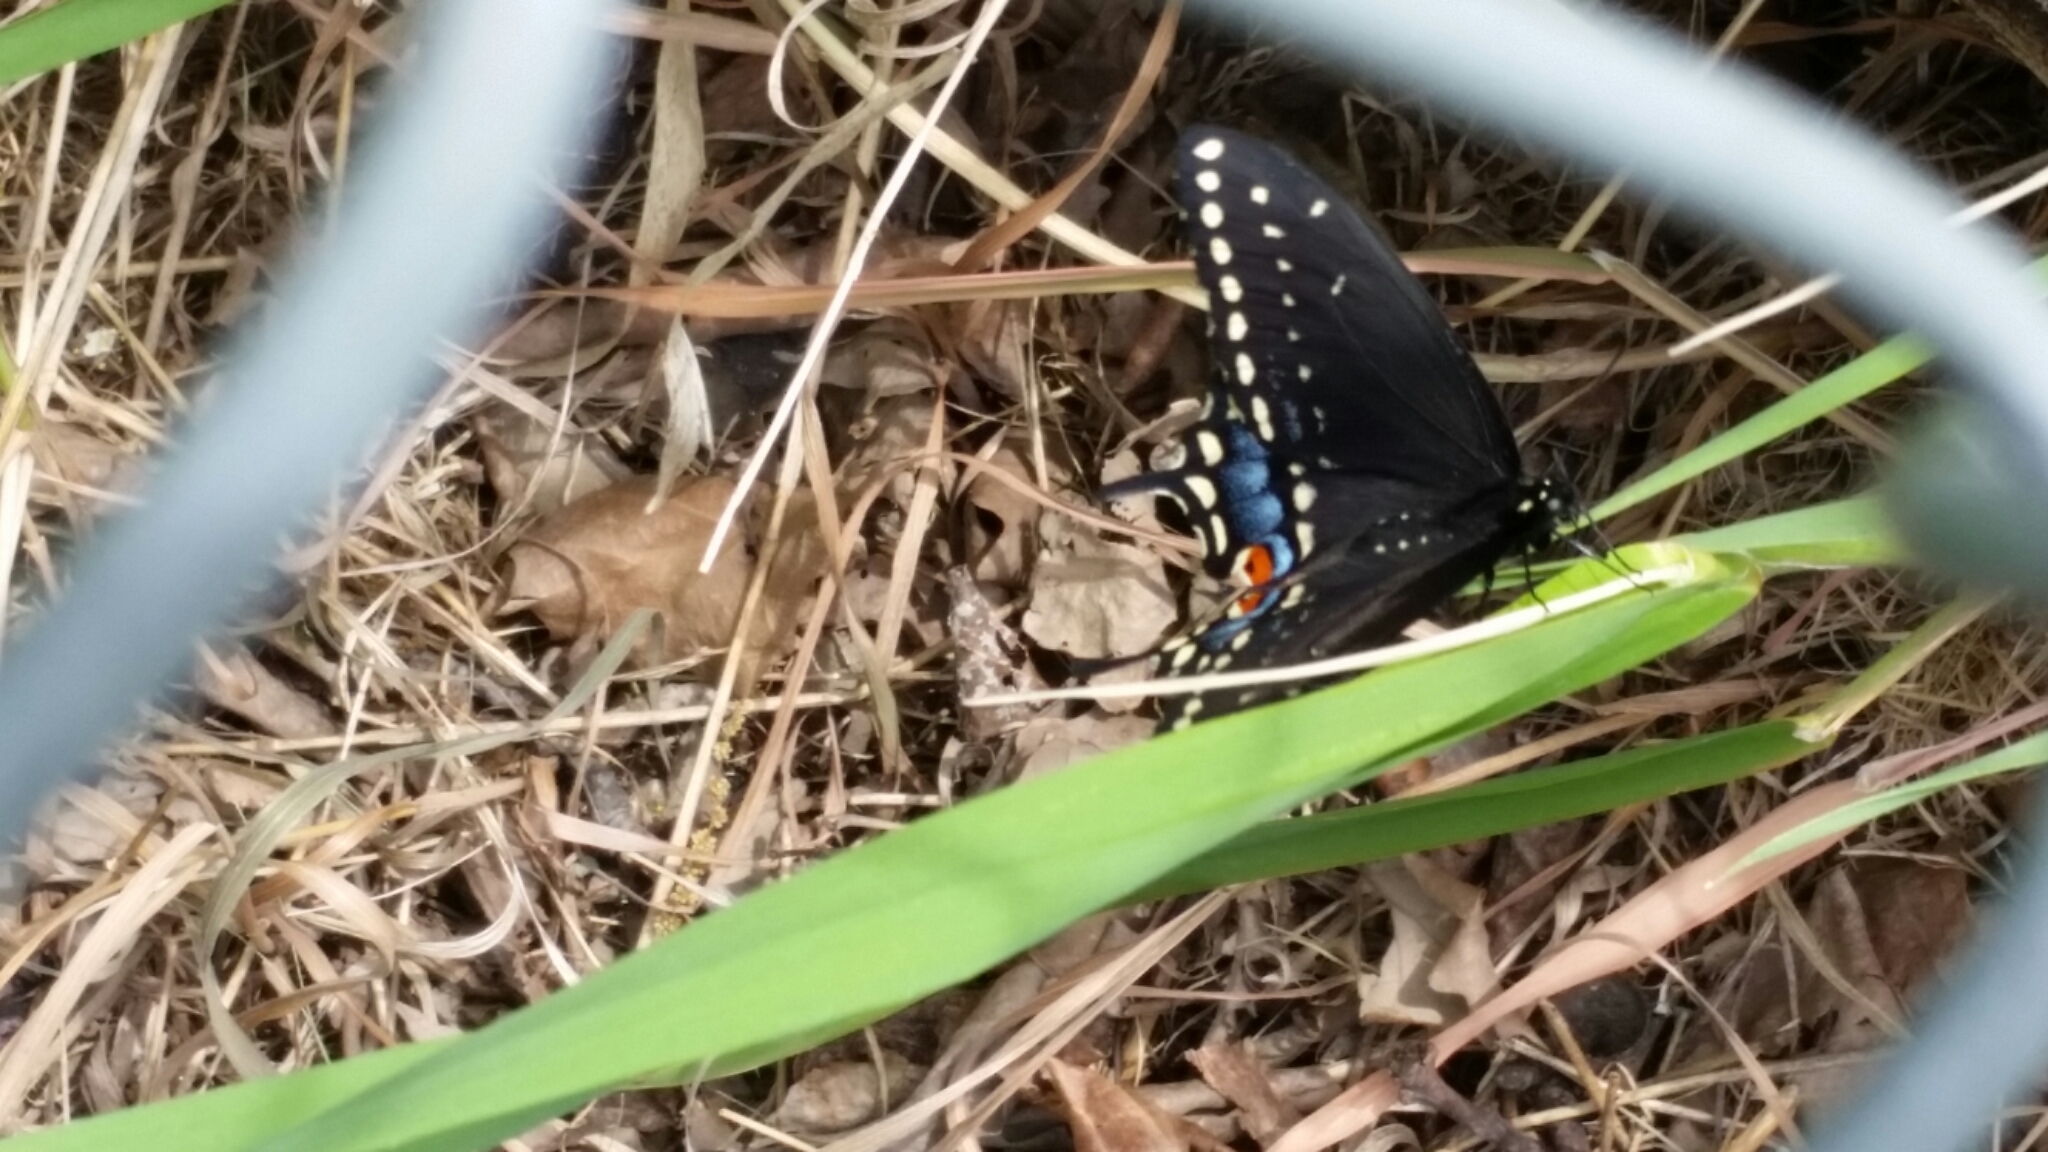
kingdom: Animalia
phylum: Arthropoda
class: Insecta
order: Lepidoptera
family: Papilionidae
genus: Papilio
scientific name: Papilio polyxenes
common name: Black swallowtail
